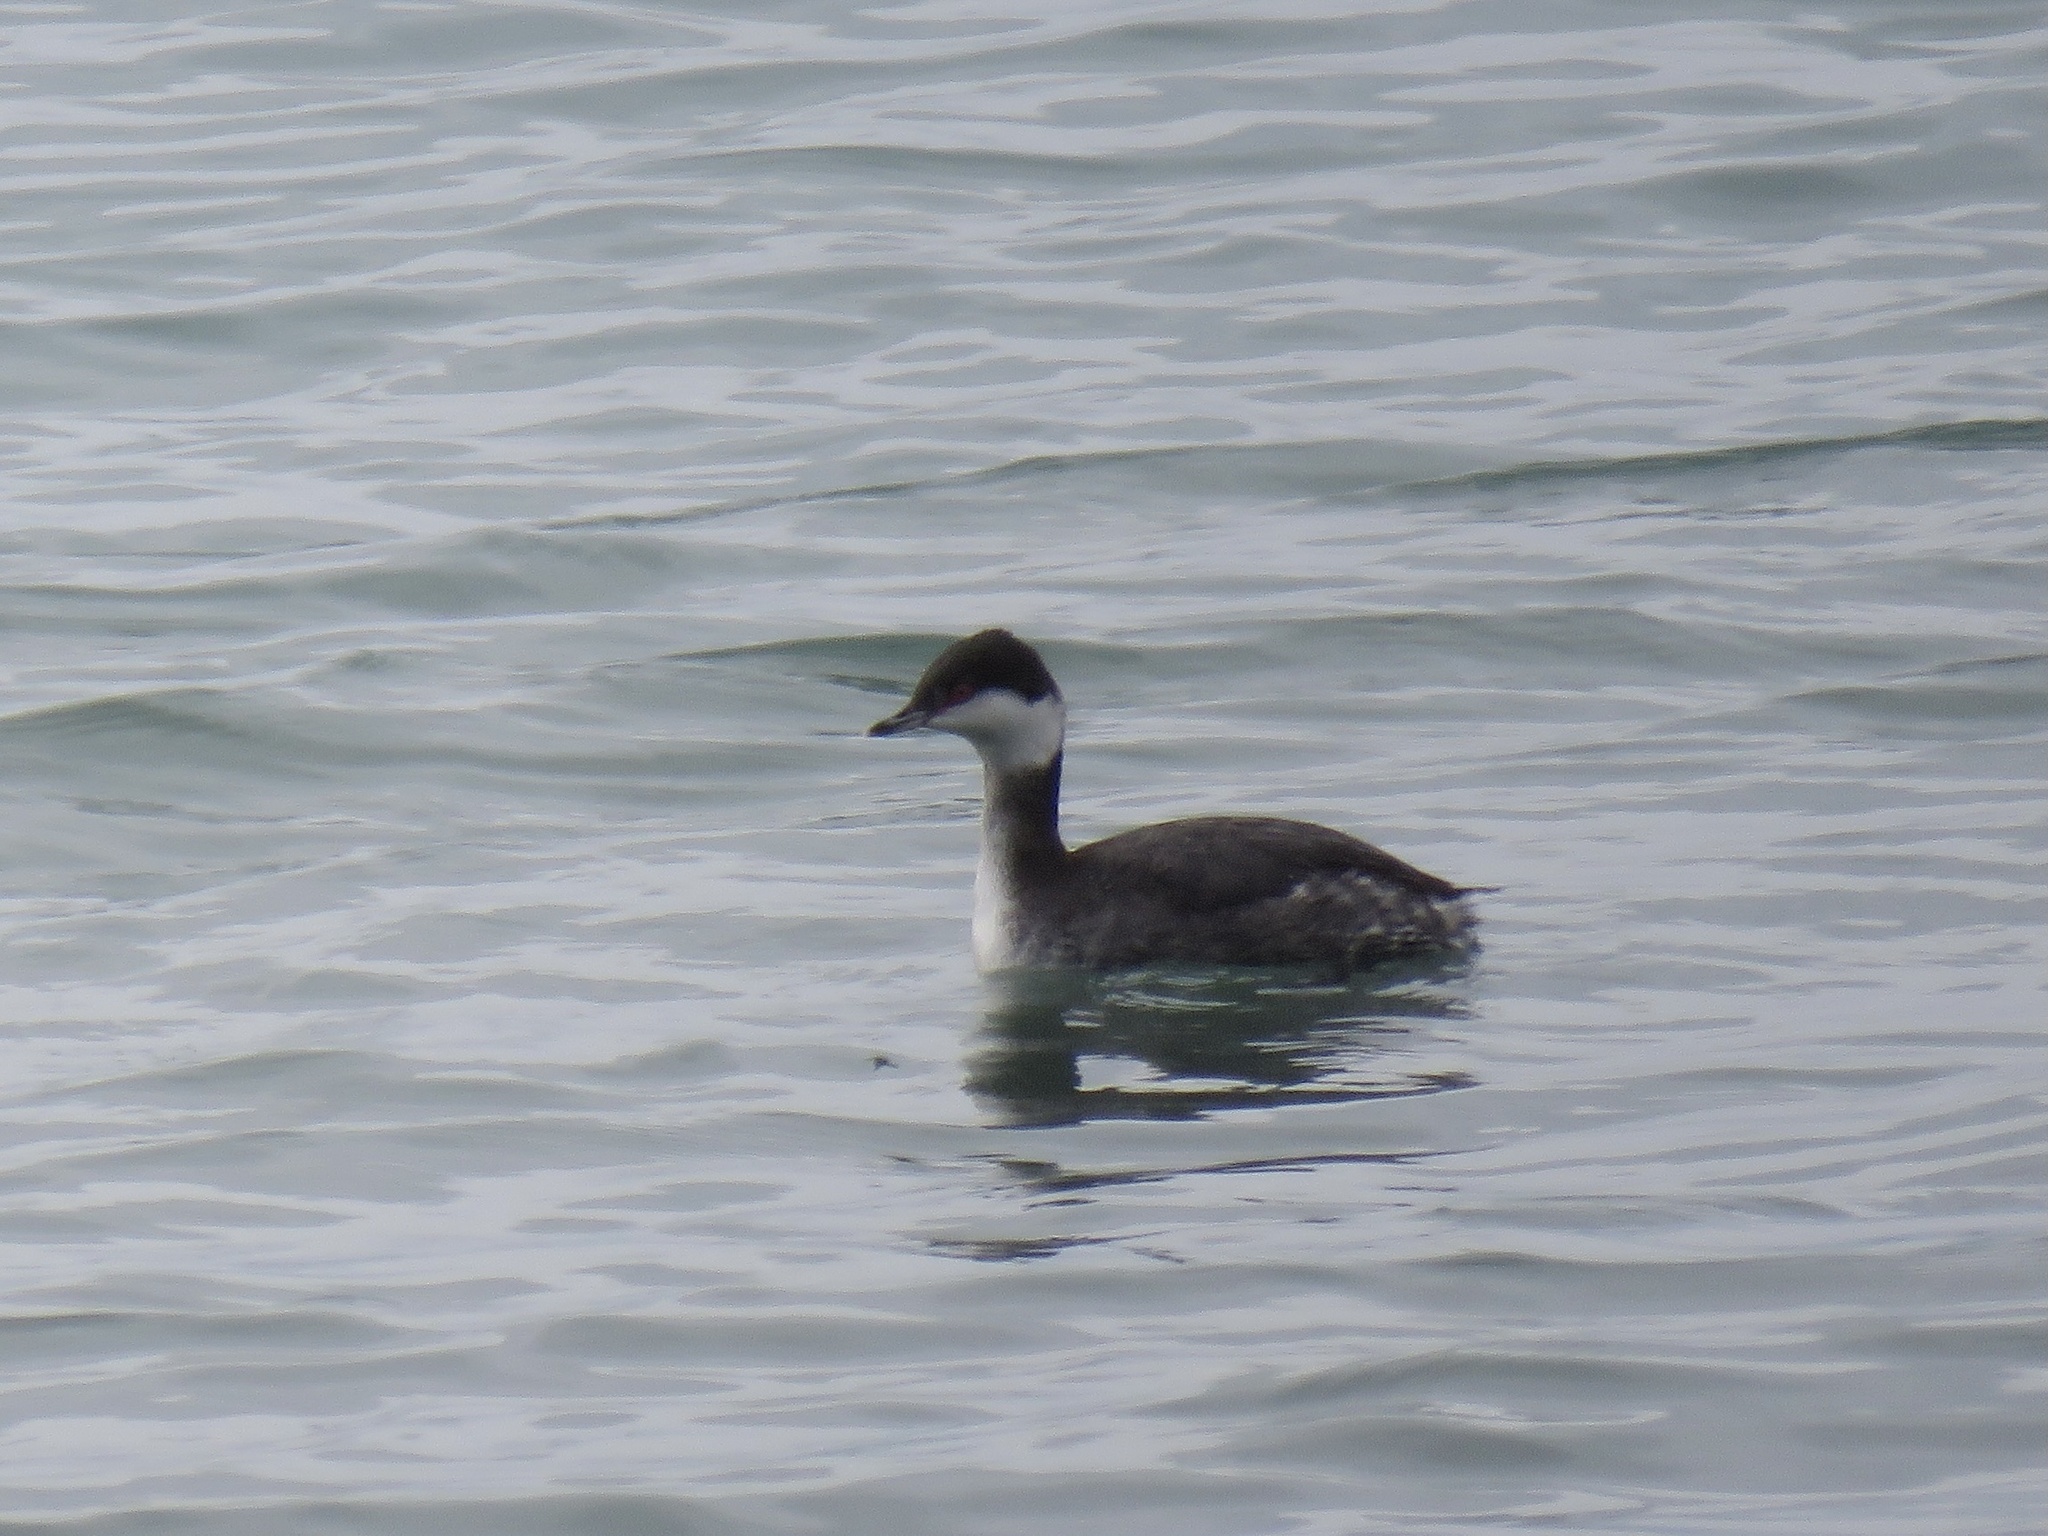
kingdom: Animalia
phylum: Chordata
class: Aves
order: Podicipediformes
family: Podicipedidae
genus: Podiceps
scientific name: Podiceps auritus
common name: Horned grebe
